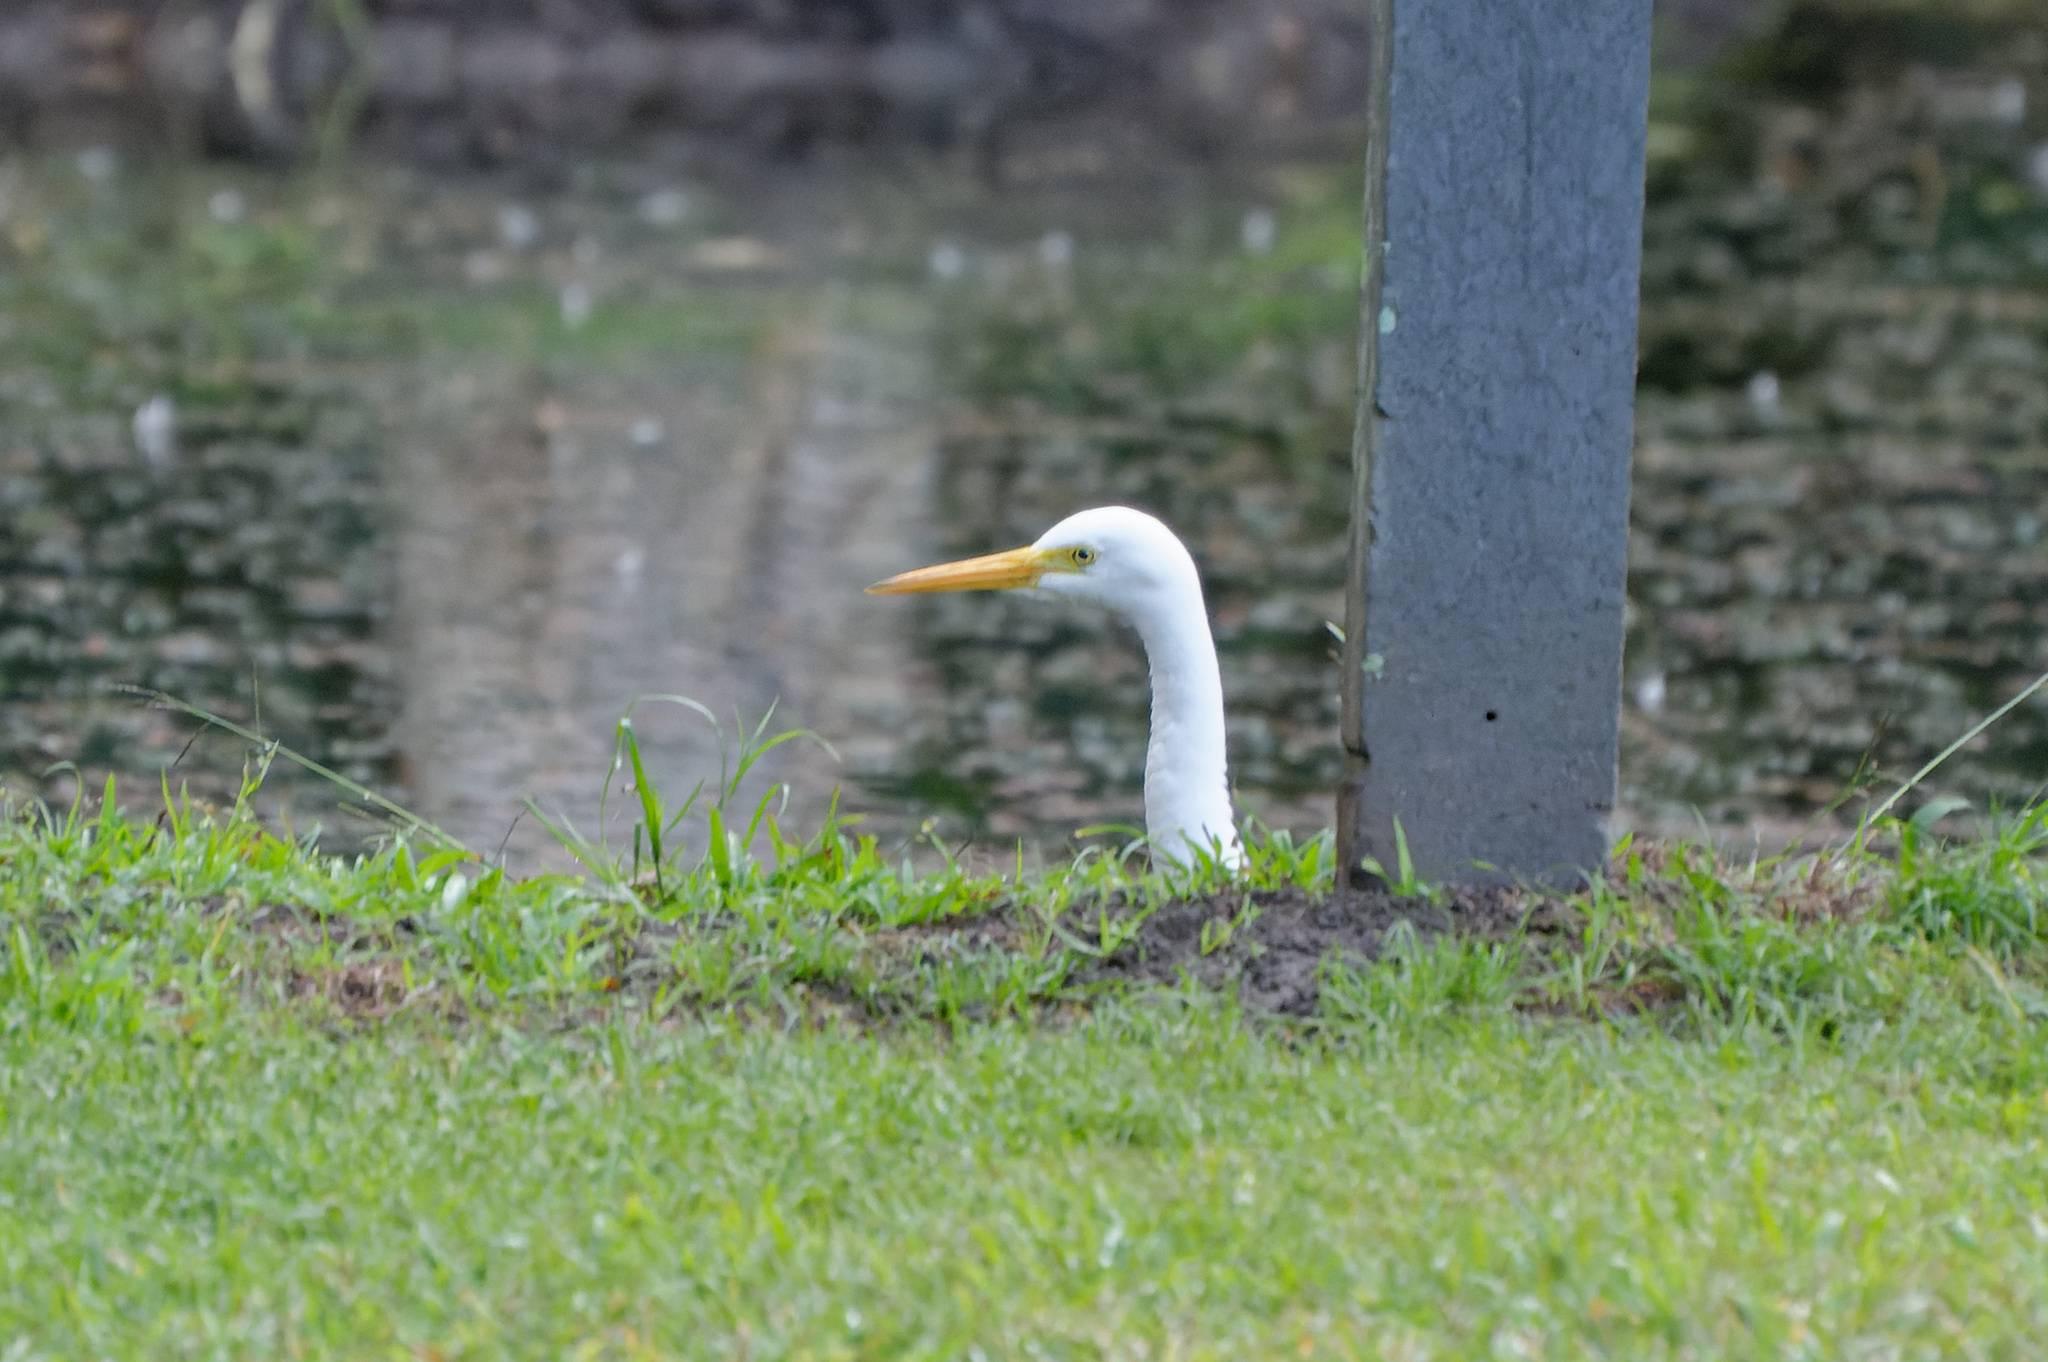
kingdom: Animalia
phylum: Chordata
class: Aves
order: Pelecaniformes
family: Ardeidae
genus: Egretta
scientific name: Egretta intermedia
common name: Intermediate egret
